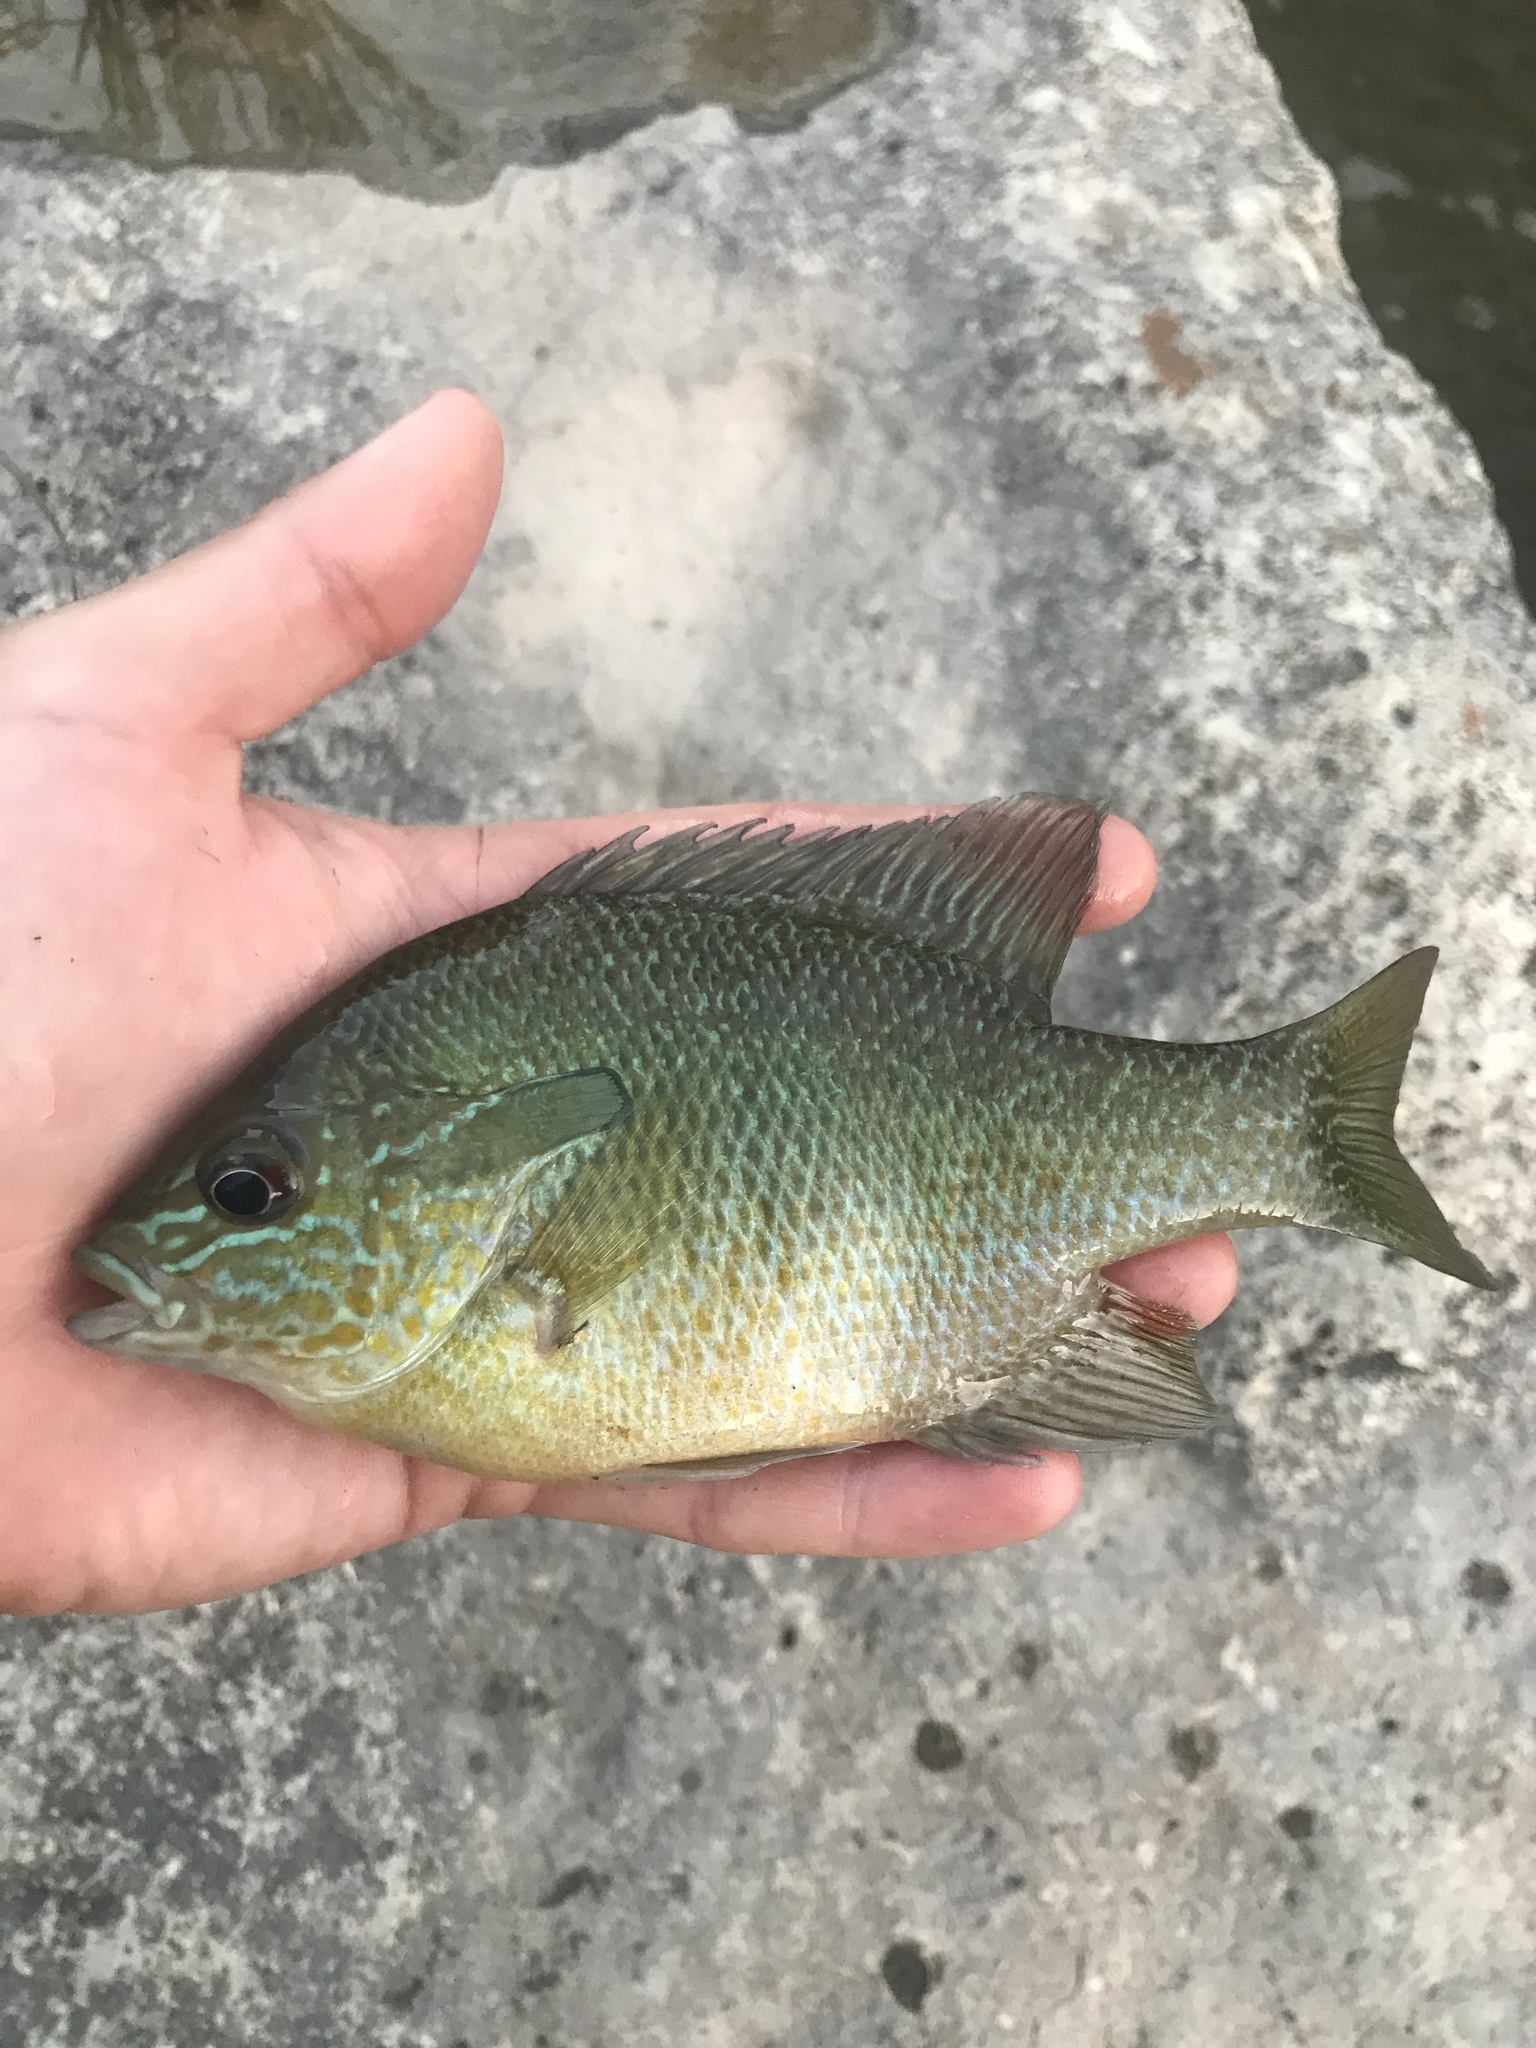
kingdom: Animalia
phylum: Chordata
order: Perciformes
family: Centrarchidae
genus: Lepomis
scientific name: Lepomis auritus
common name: Redbreast sunfish
